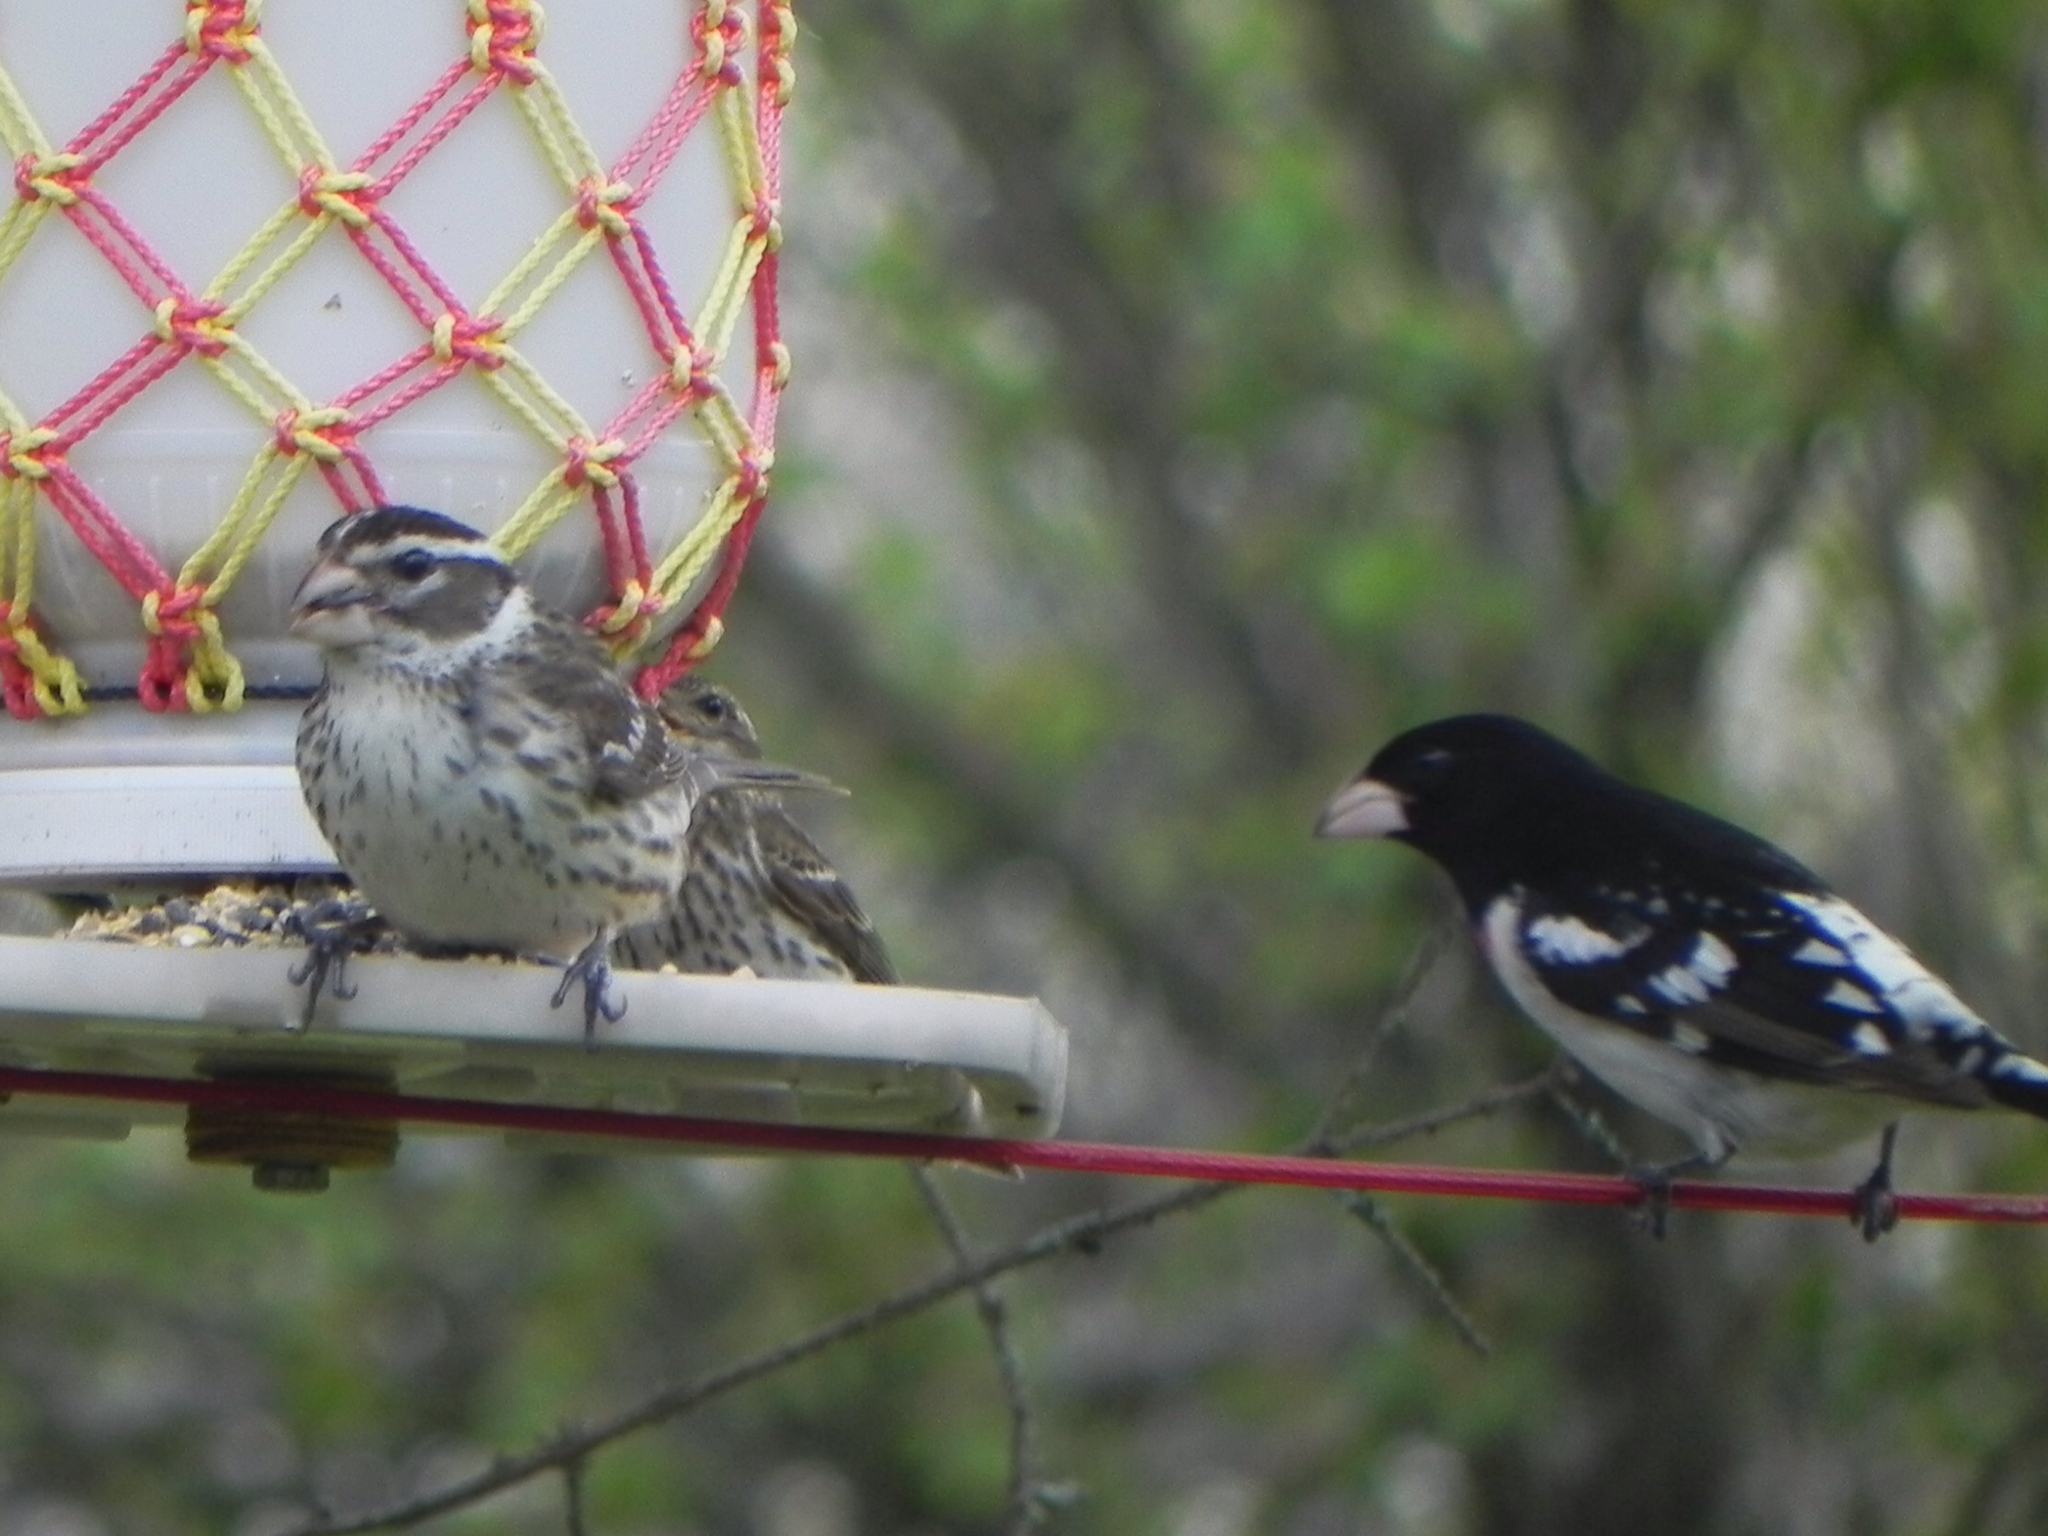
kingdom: Animalia
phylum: Chordata
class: Aves
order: Passeriformes
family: Cardinalidae
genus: Pheucticus
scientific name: Pheucticus ludovicianus
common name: Rose-breasted grosbeak
